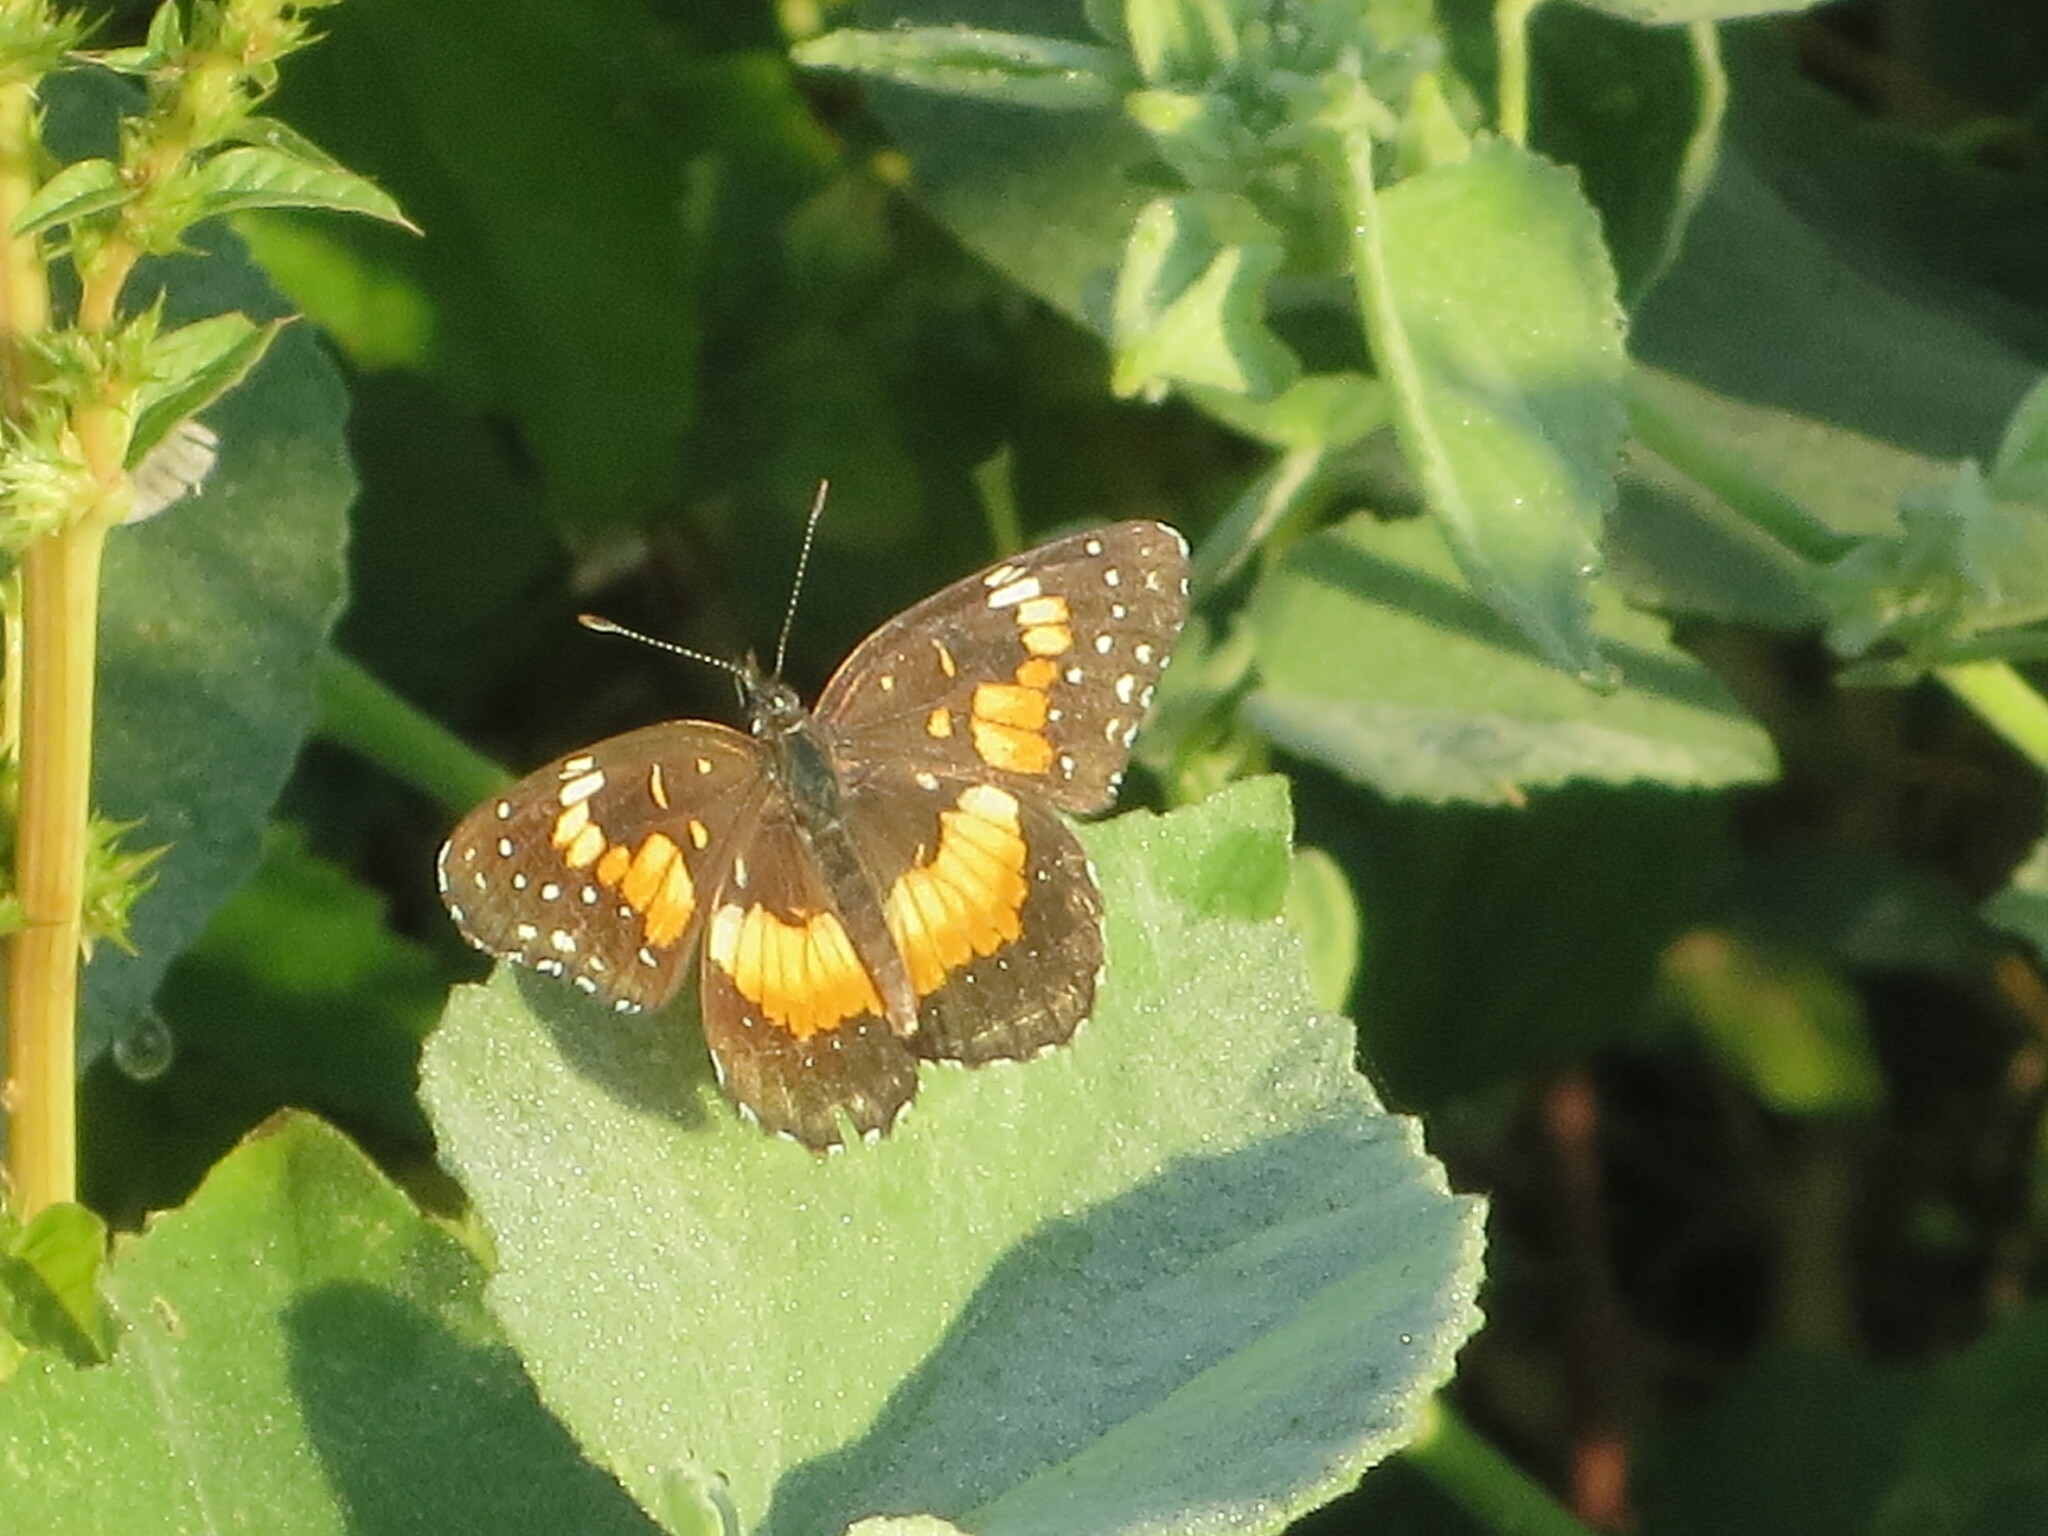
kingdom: Animalia
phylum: Arthropoda
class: Insecta
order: Lepidoptera
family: Nymphalidae
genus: Chlosyne
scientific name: Chlosyne lacinia
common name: Bordered patch
